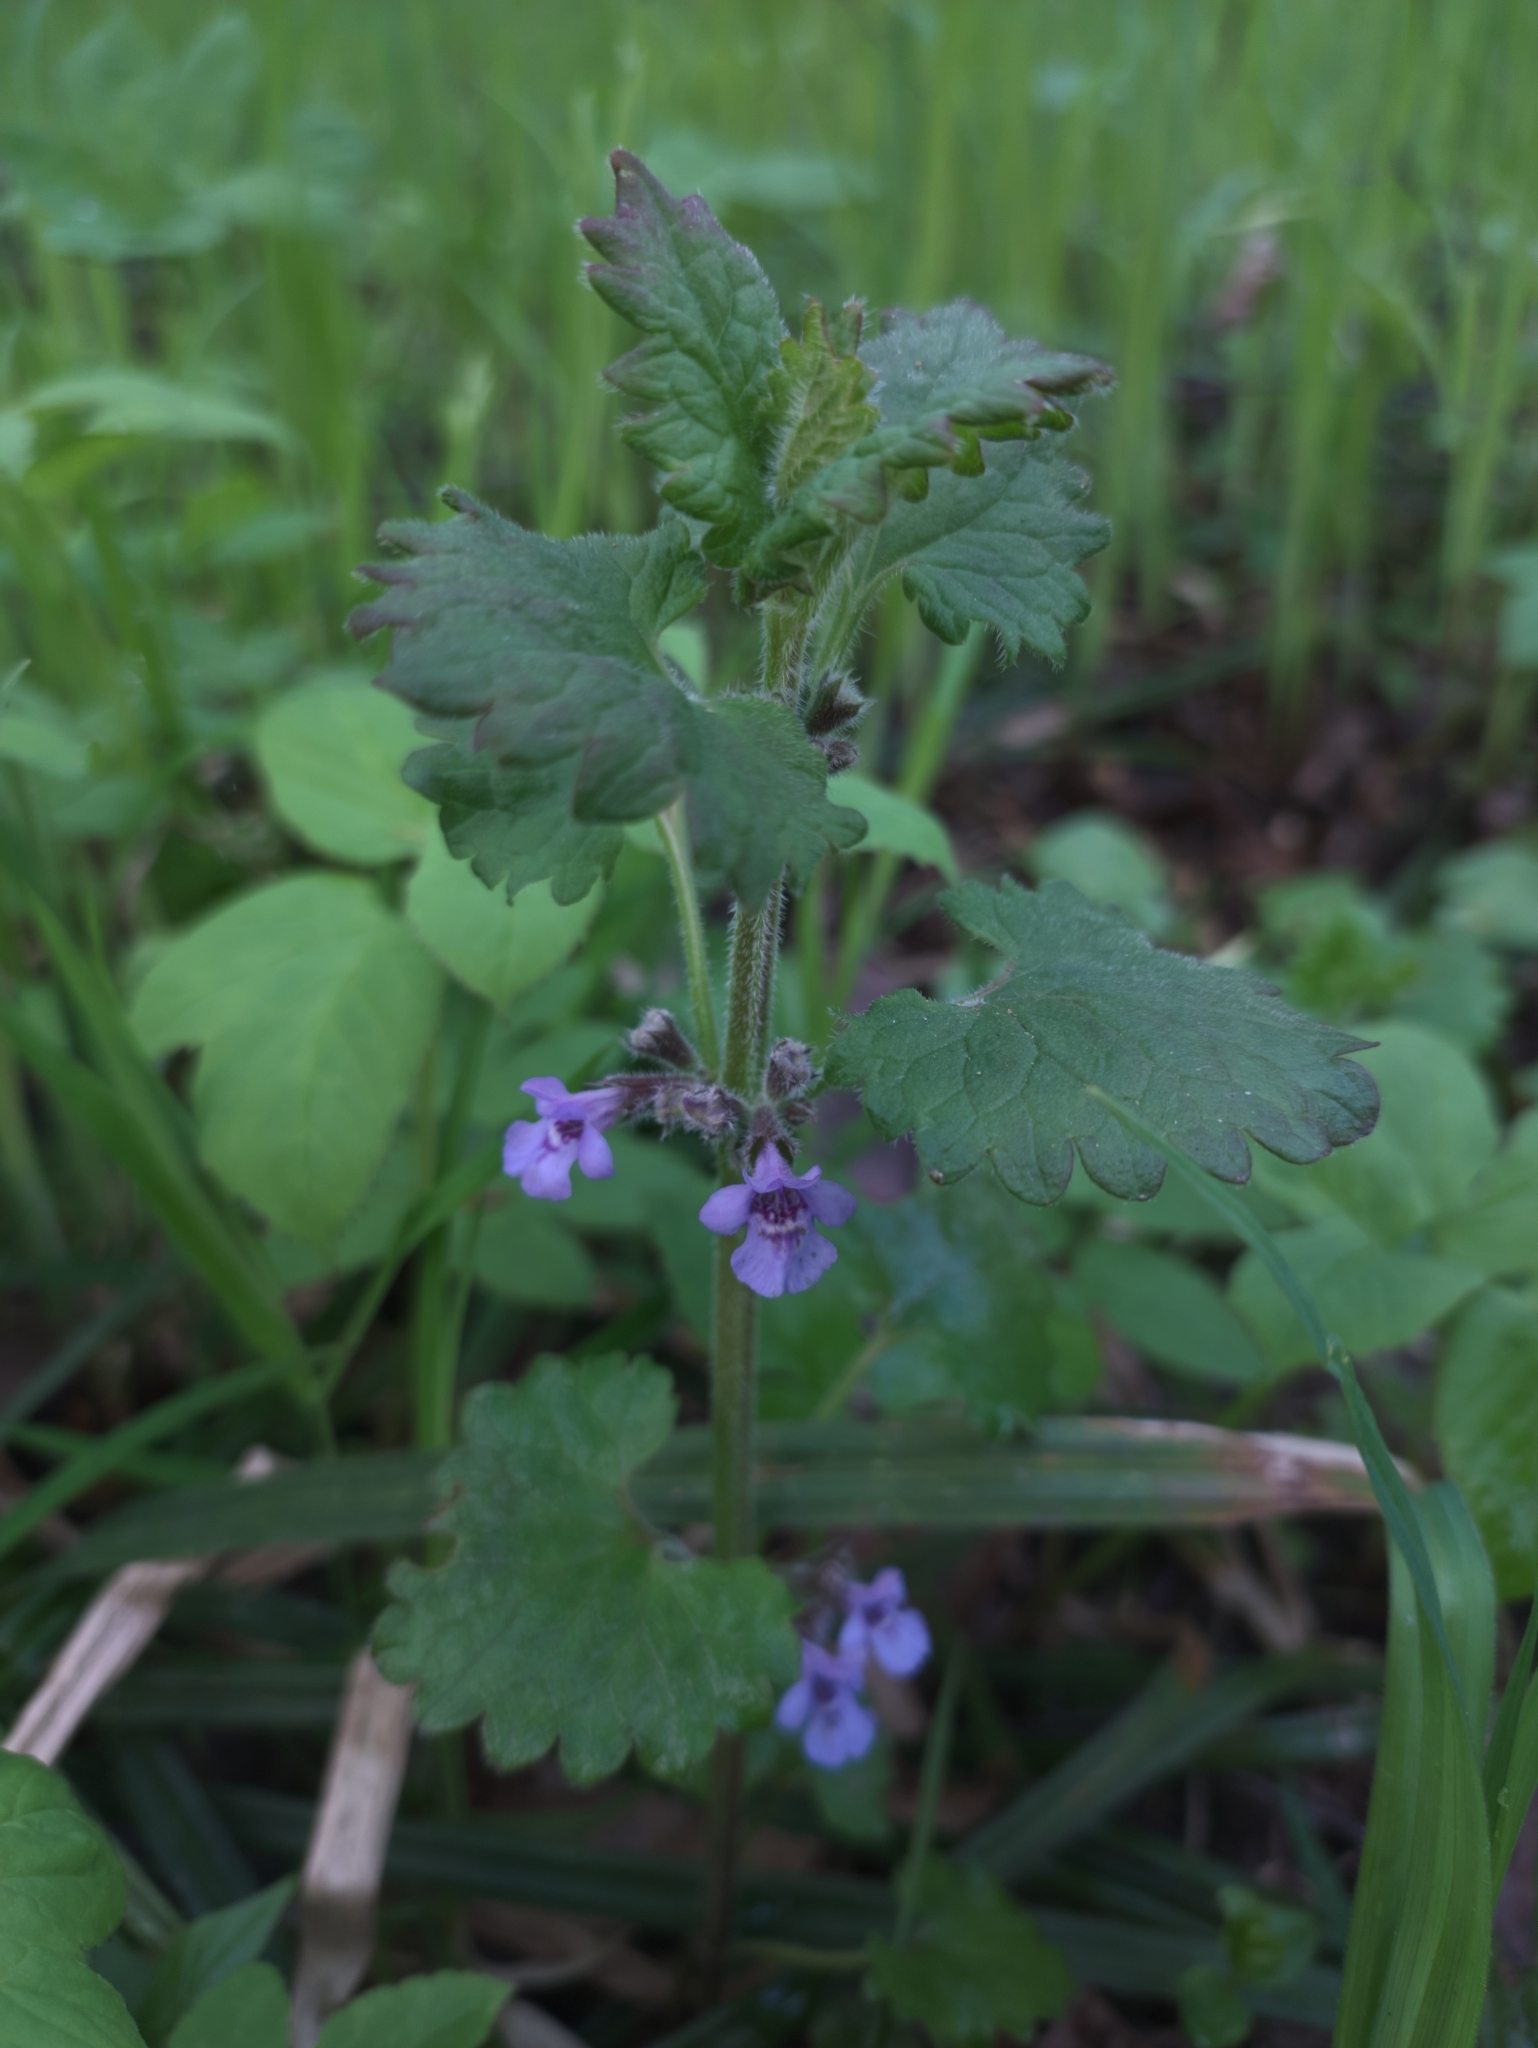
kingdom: Plantae
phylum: Tracheophyta
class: Magnoliopsida
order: Lamiales
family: Lamiaceae
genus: Glechoma
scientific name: Glechoma hederacea
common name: Ground ivy
